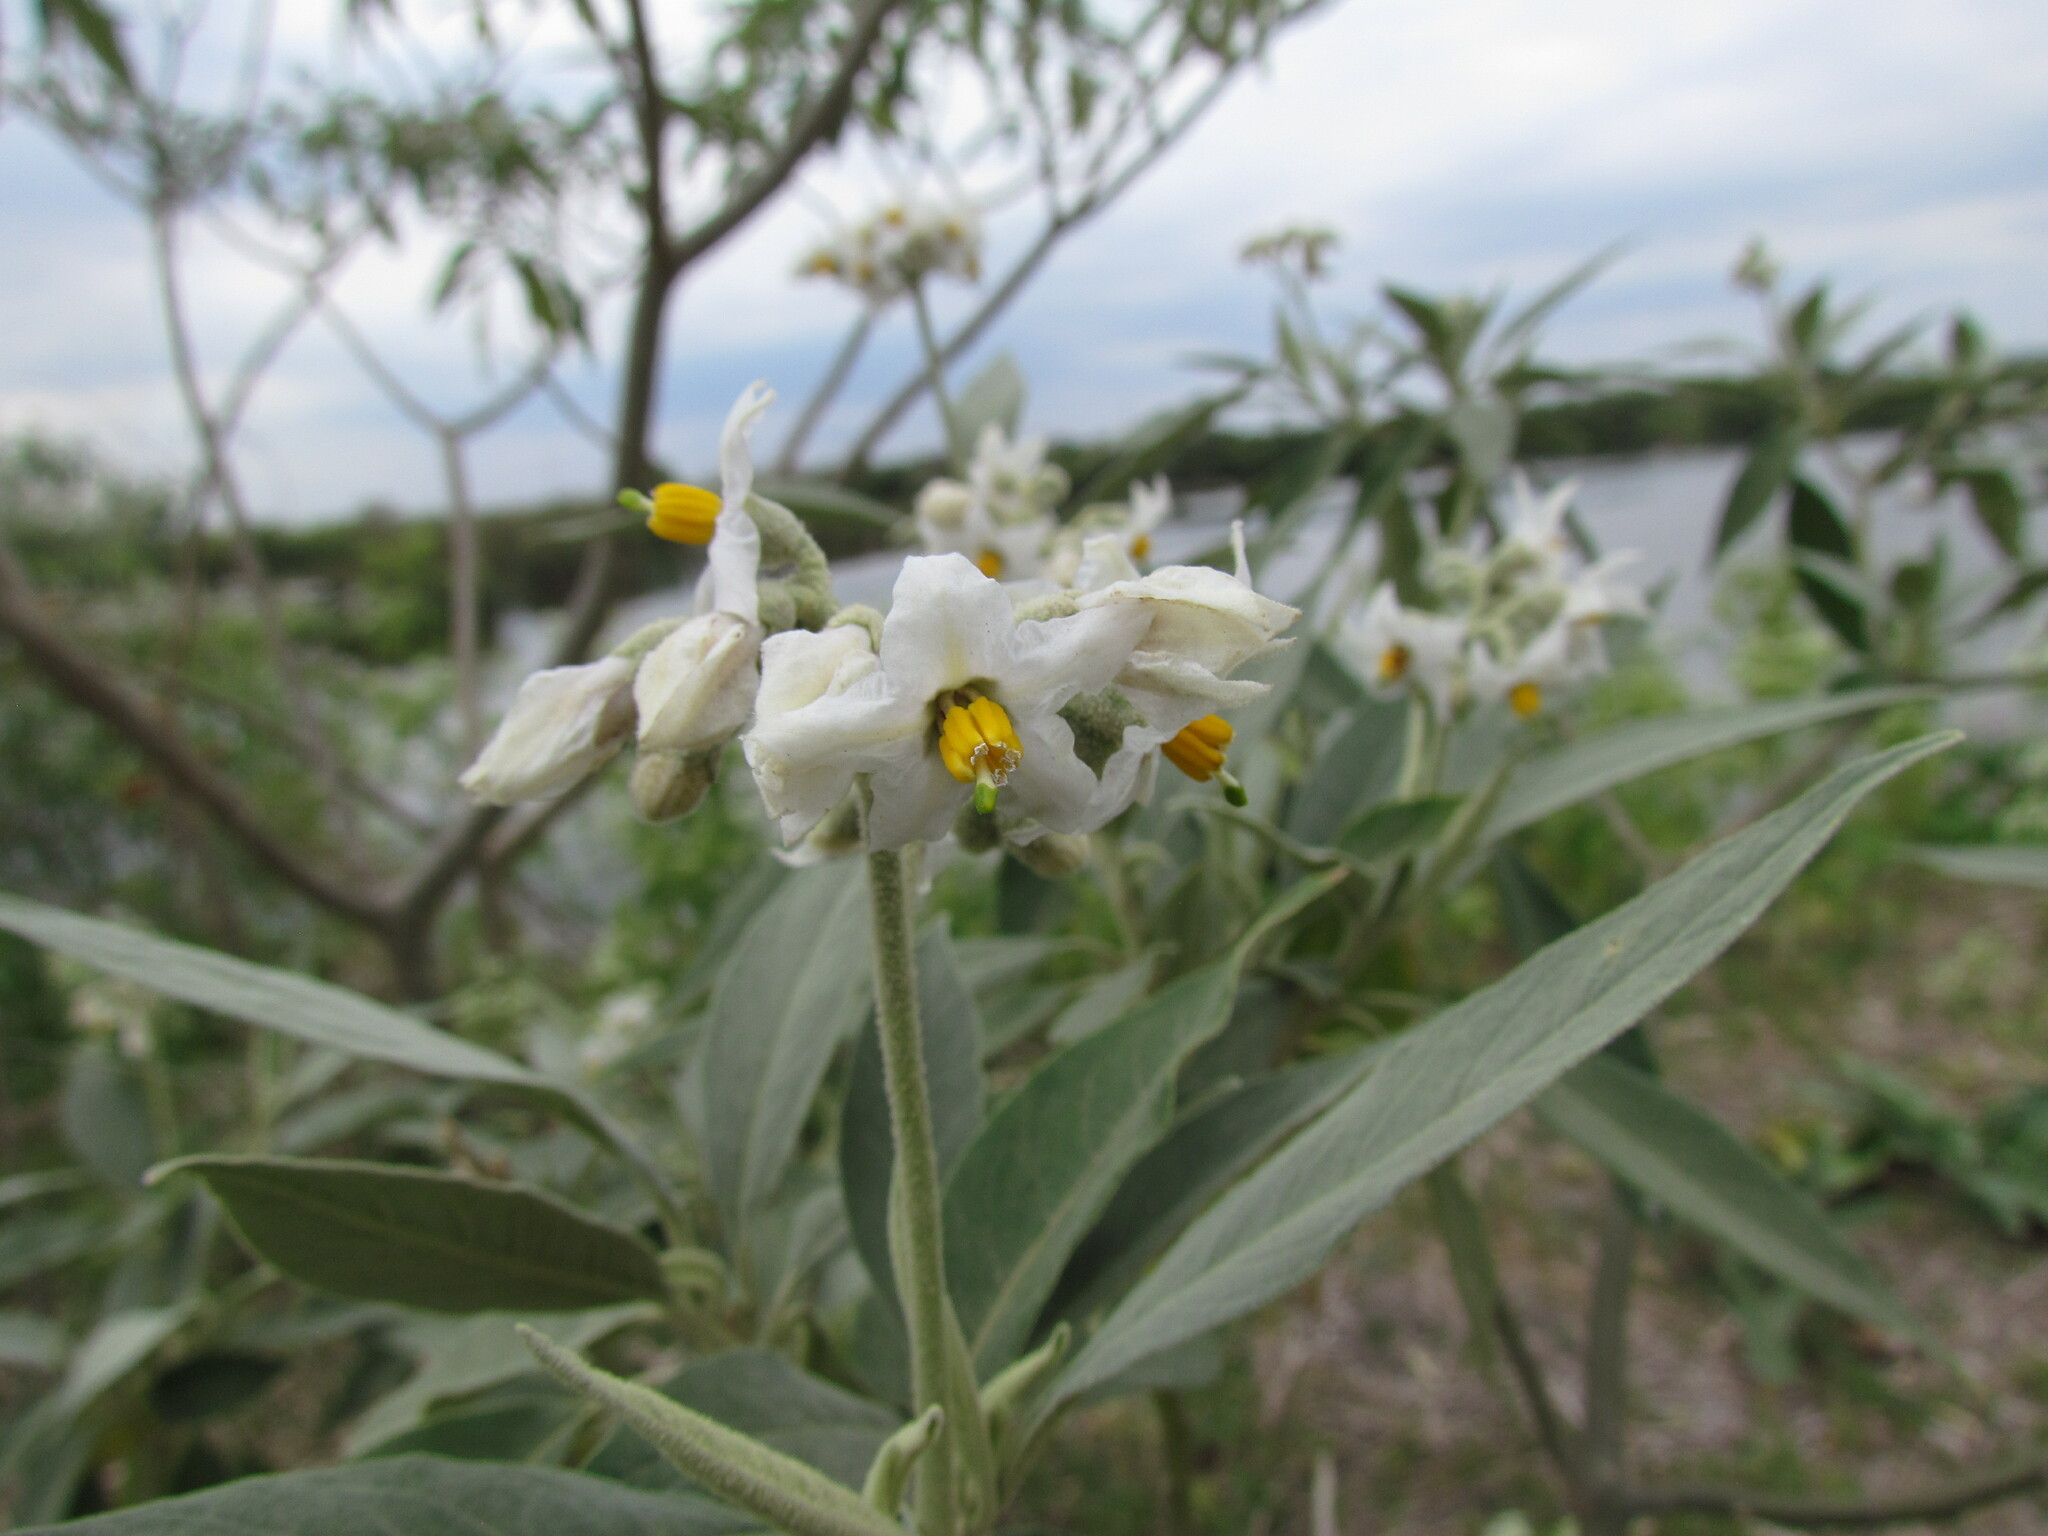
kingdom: Plantae
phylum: Tracheophyta
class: Magnoliopsida
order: Solanales
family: Solanaceae
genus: Solanum
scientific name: Solanum granulosoleprosum
